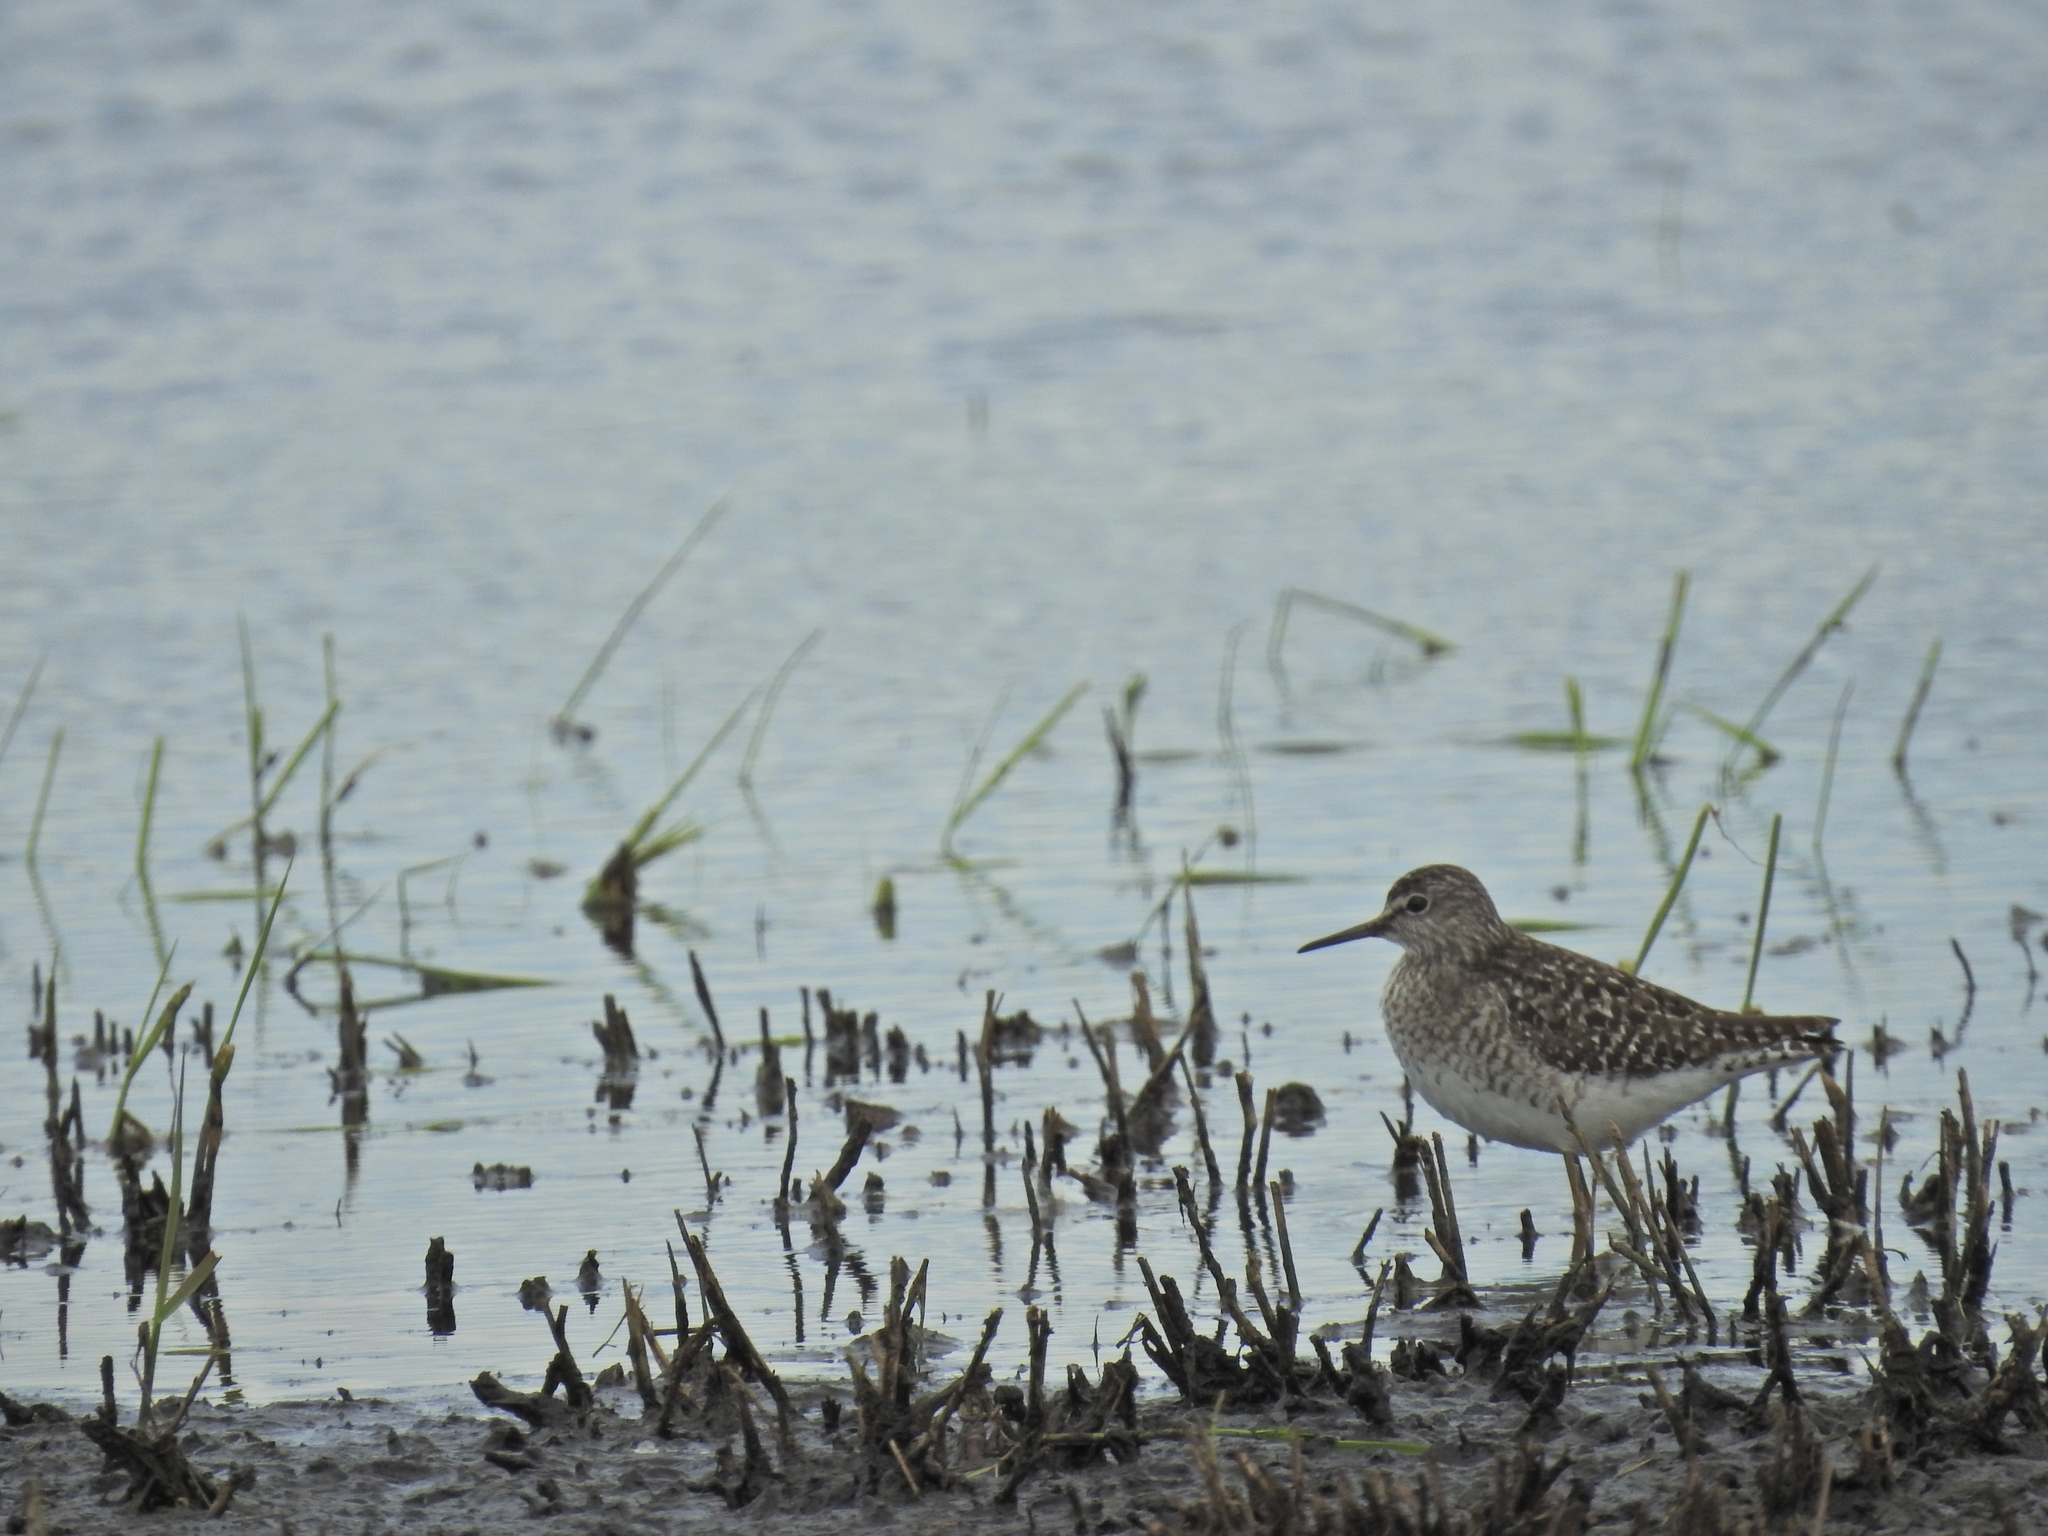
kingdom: Animalia
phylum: Chordata
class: Aves
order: Charadriiformes
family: Scolopacidae
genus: Tringa
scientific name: Tringa glareola
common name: Wood sandpiper
